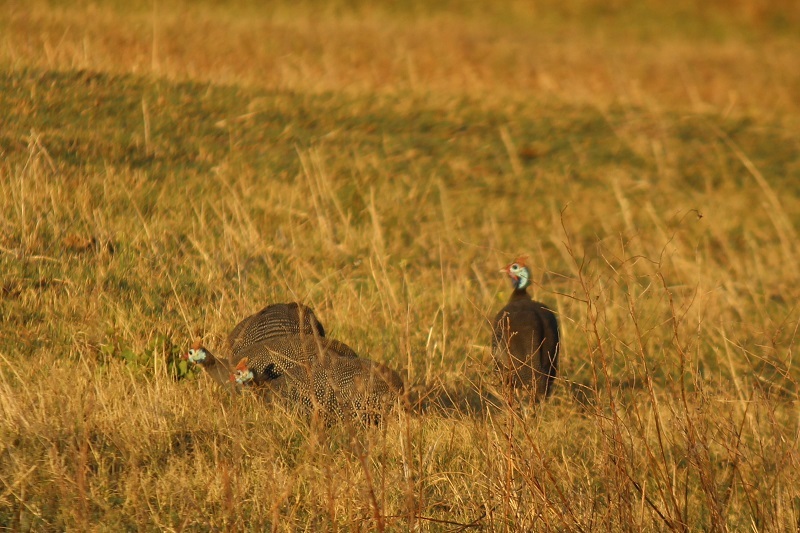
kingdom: Animalia
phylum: Chordata
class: Aves
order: Galliformes
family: Numididae
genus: Numida
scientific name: Numida meleagris
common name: Helmeted guineafowl
